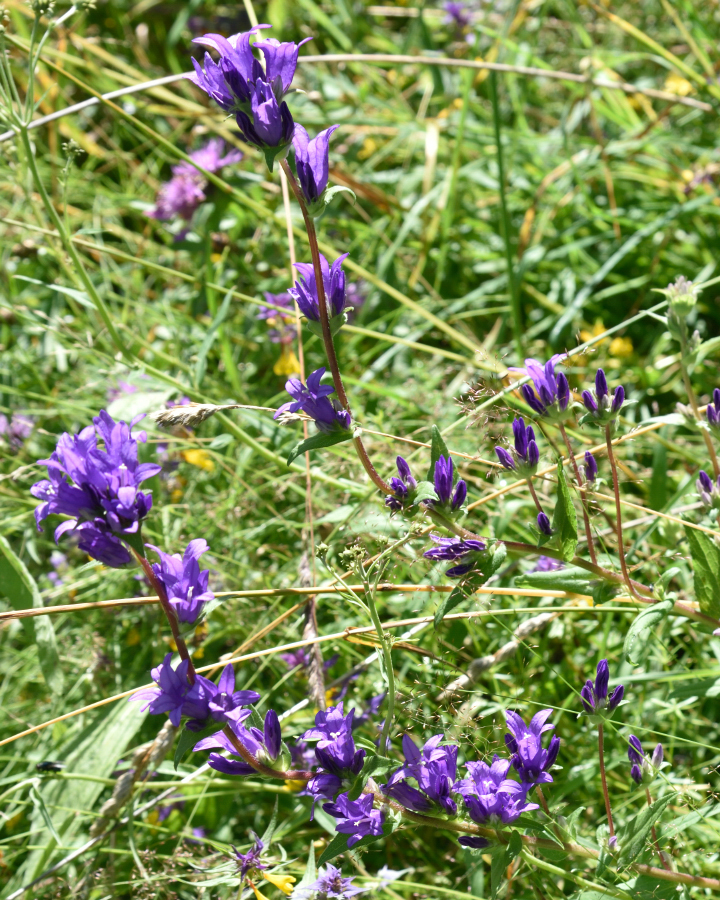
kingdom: Plantae
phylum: Tracheophyta
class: Magnoliopsida
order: Asterales
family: Campanulaceae
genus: Campanula
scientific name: Campanula glomerata
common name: Clustered bellflower
